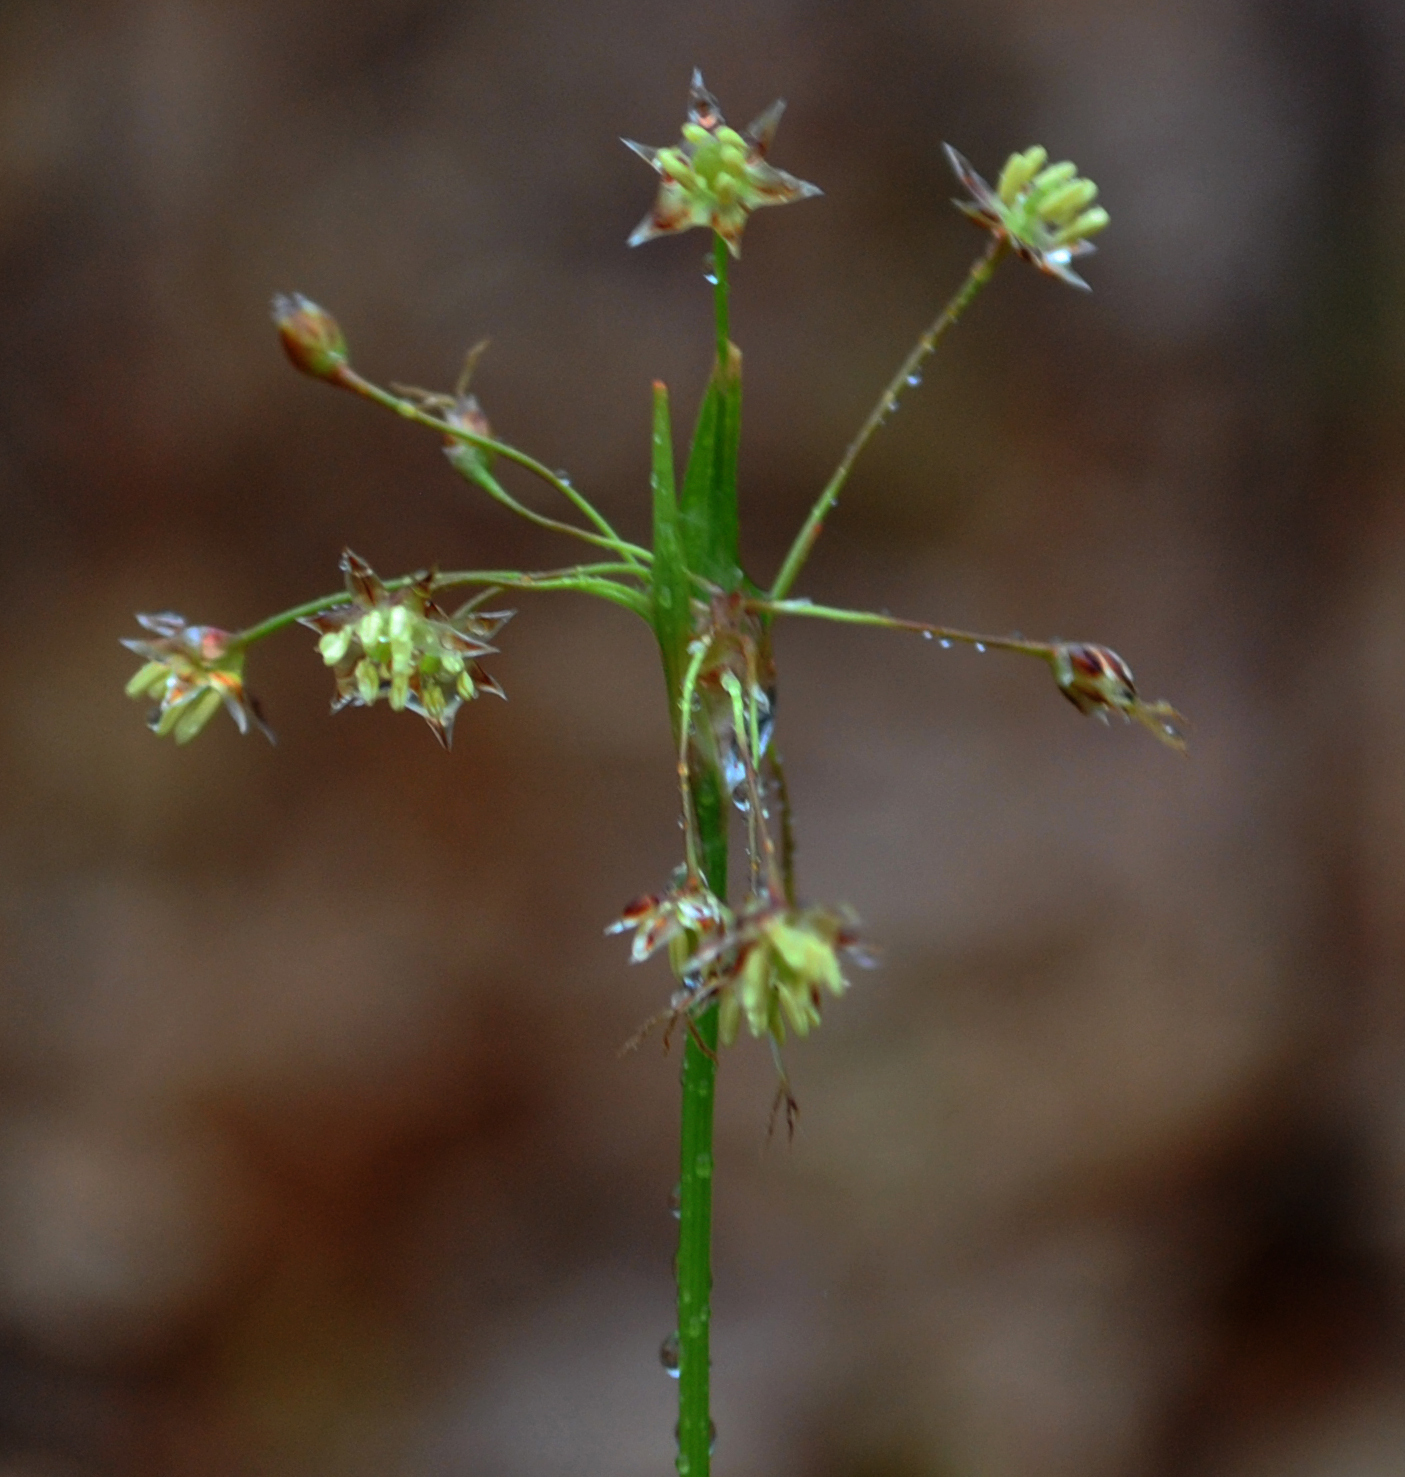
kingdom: Plantae
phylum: Tracheophyta
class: Liliopsida
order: Poales
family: Juncaceae
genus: Luzula
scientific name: Luzula acuminata
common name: Hairy woodrush
